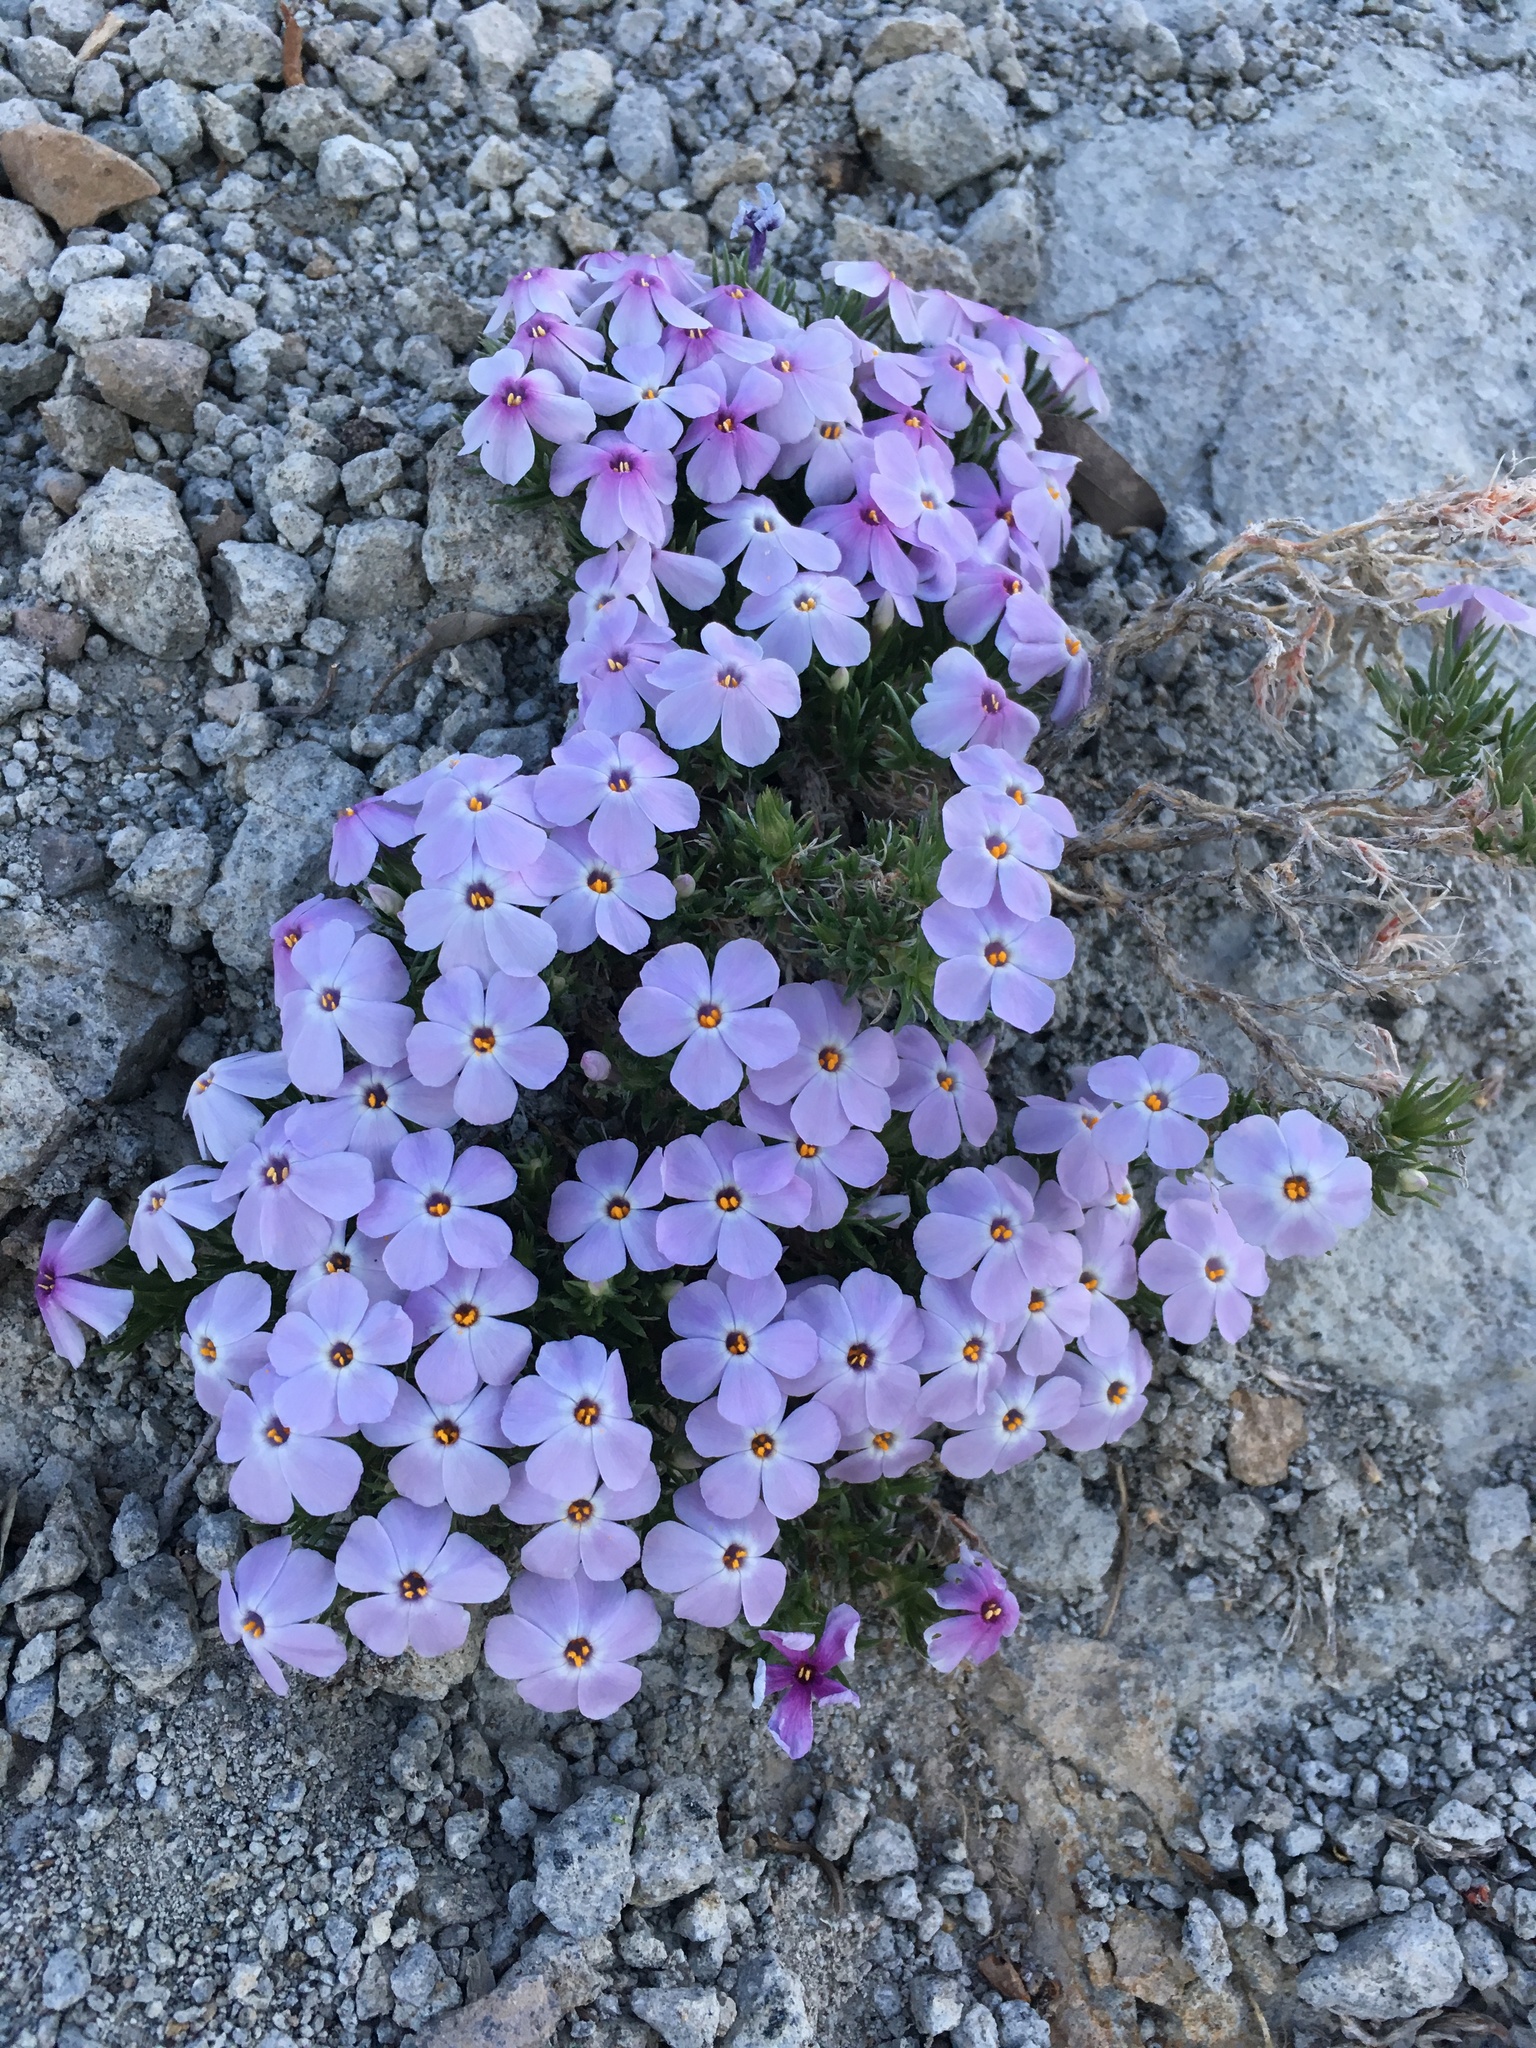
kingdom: Plantae
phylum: Tracheophyta
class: Magnoliopsida
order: Ericales
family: Polemoniaceae
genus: Phlox
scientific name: Phlox diffusa
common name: Mat phlox
